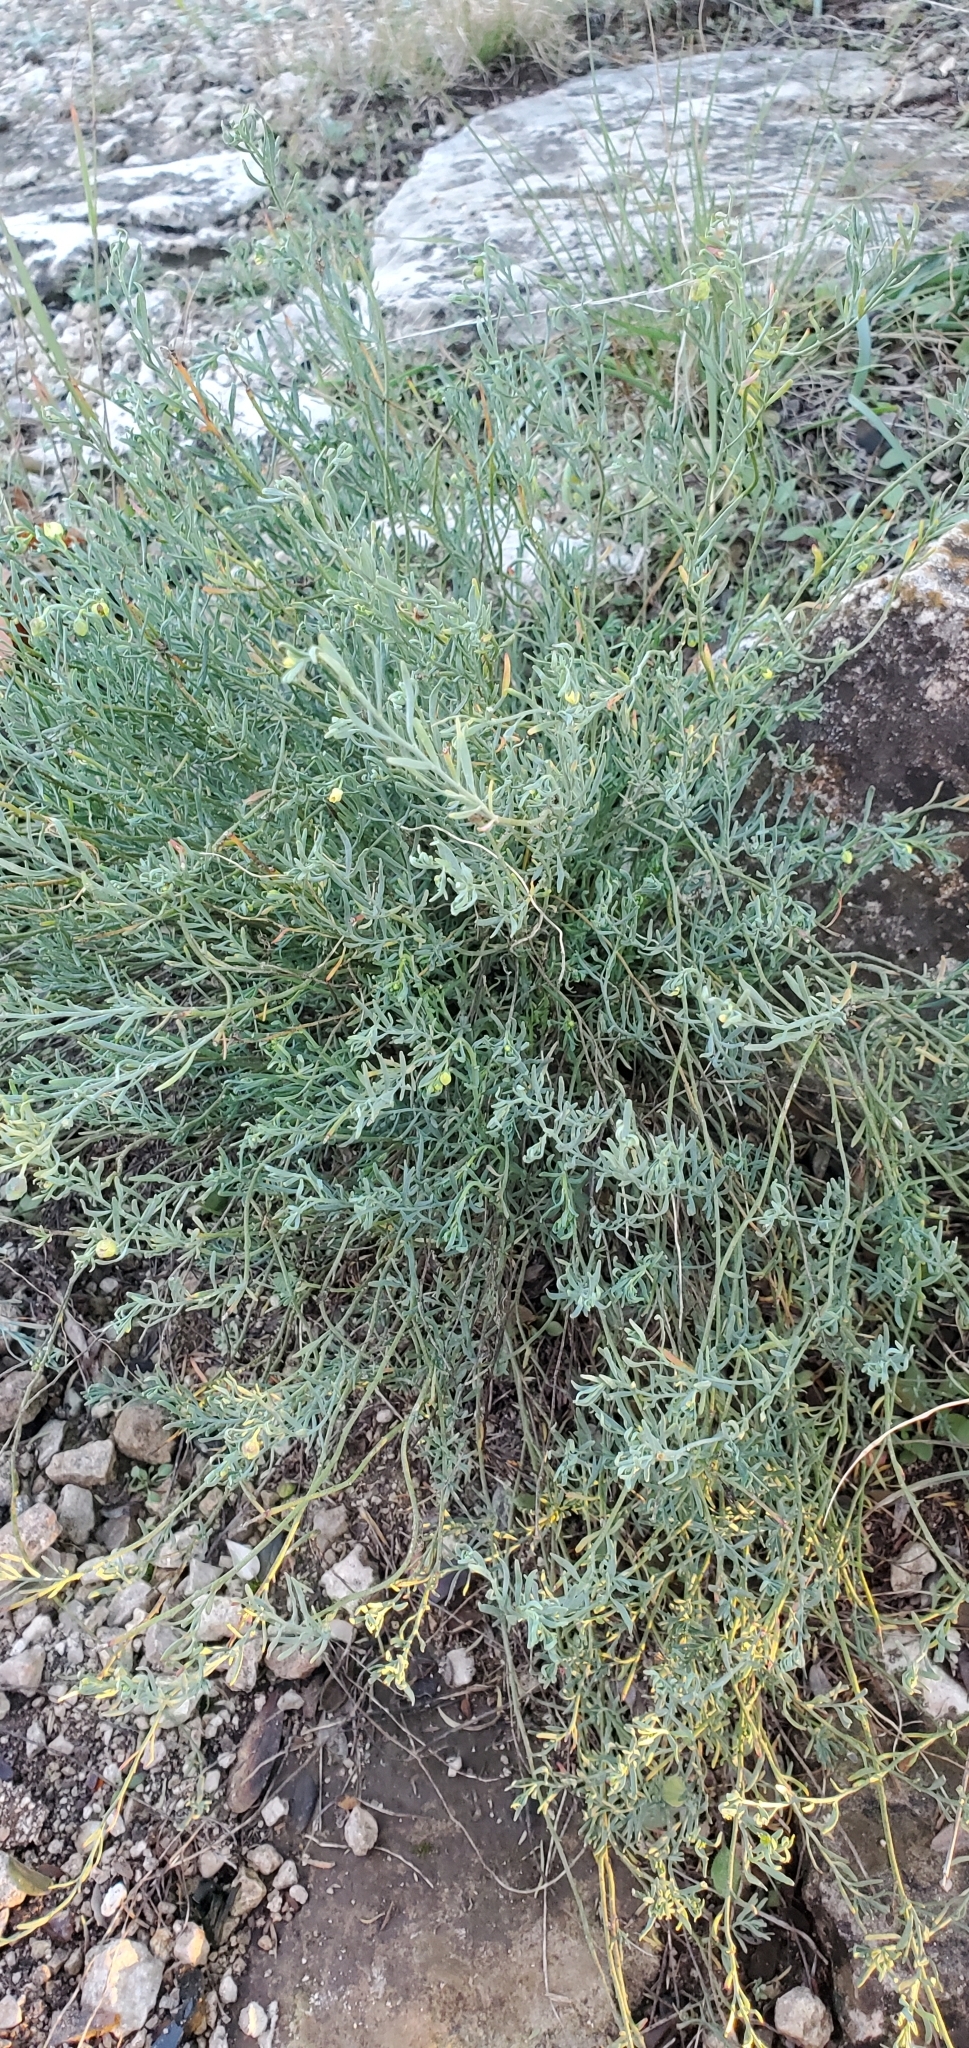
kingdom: Plantae
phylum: Tracheophyta
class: Magnoliopsida
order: Sapindales
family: Rutaceae
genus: Thamnosma
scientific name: Thamnosma texana
